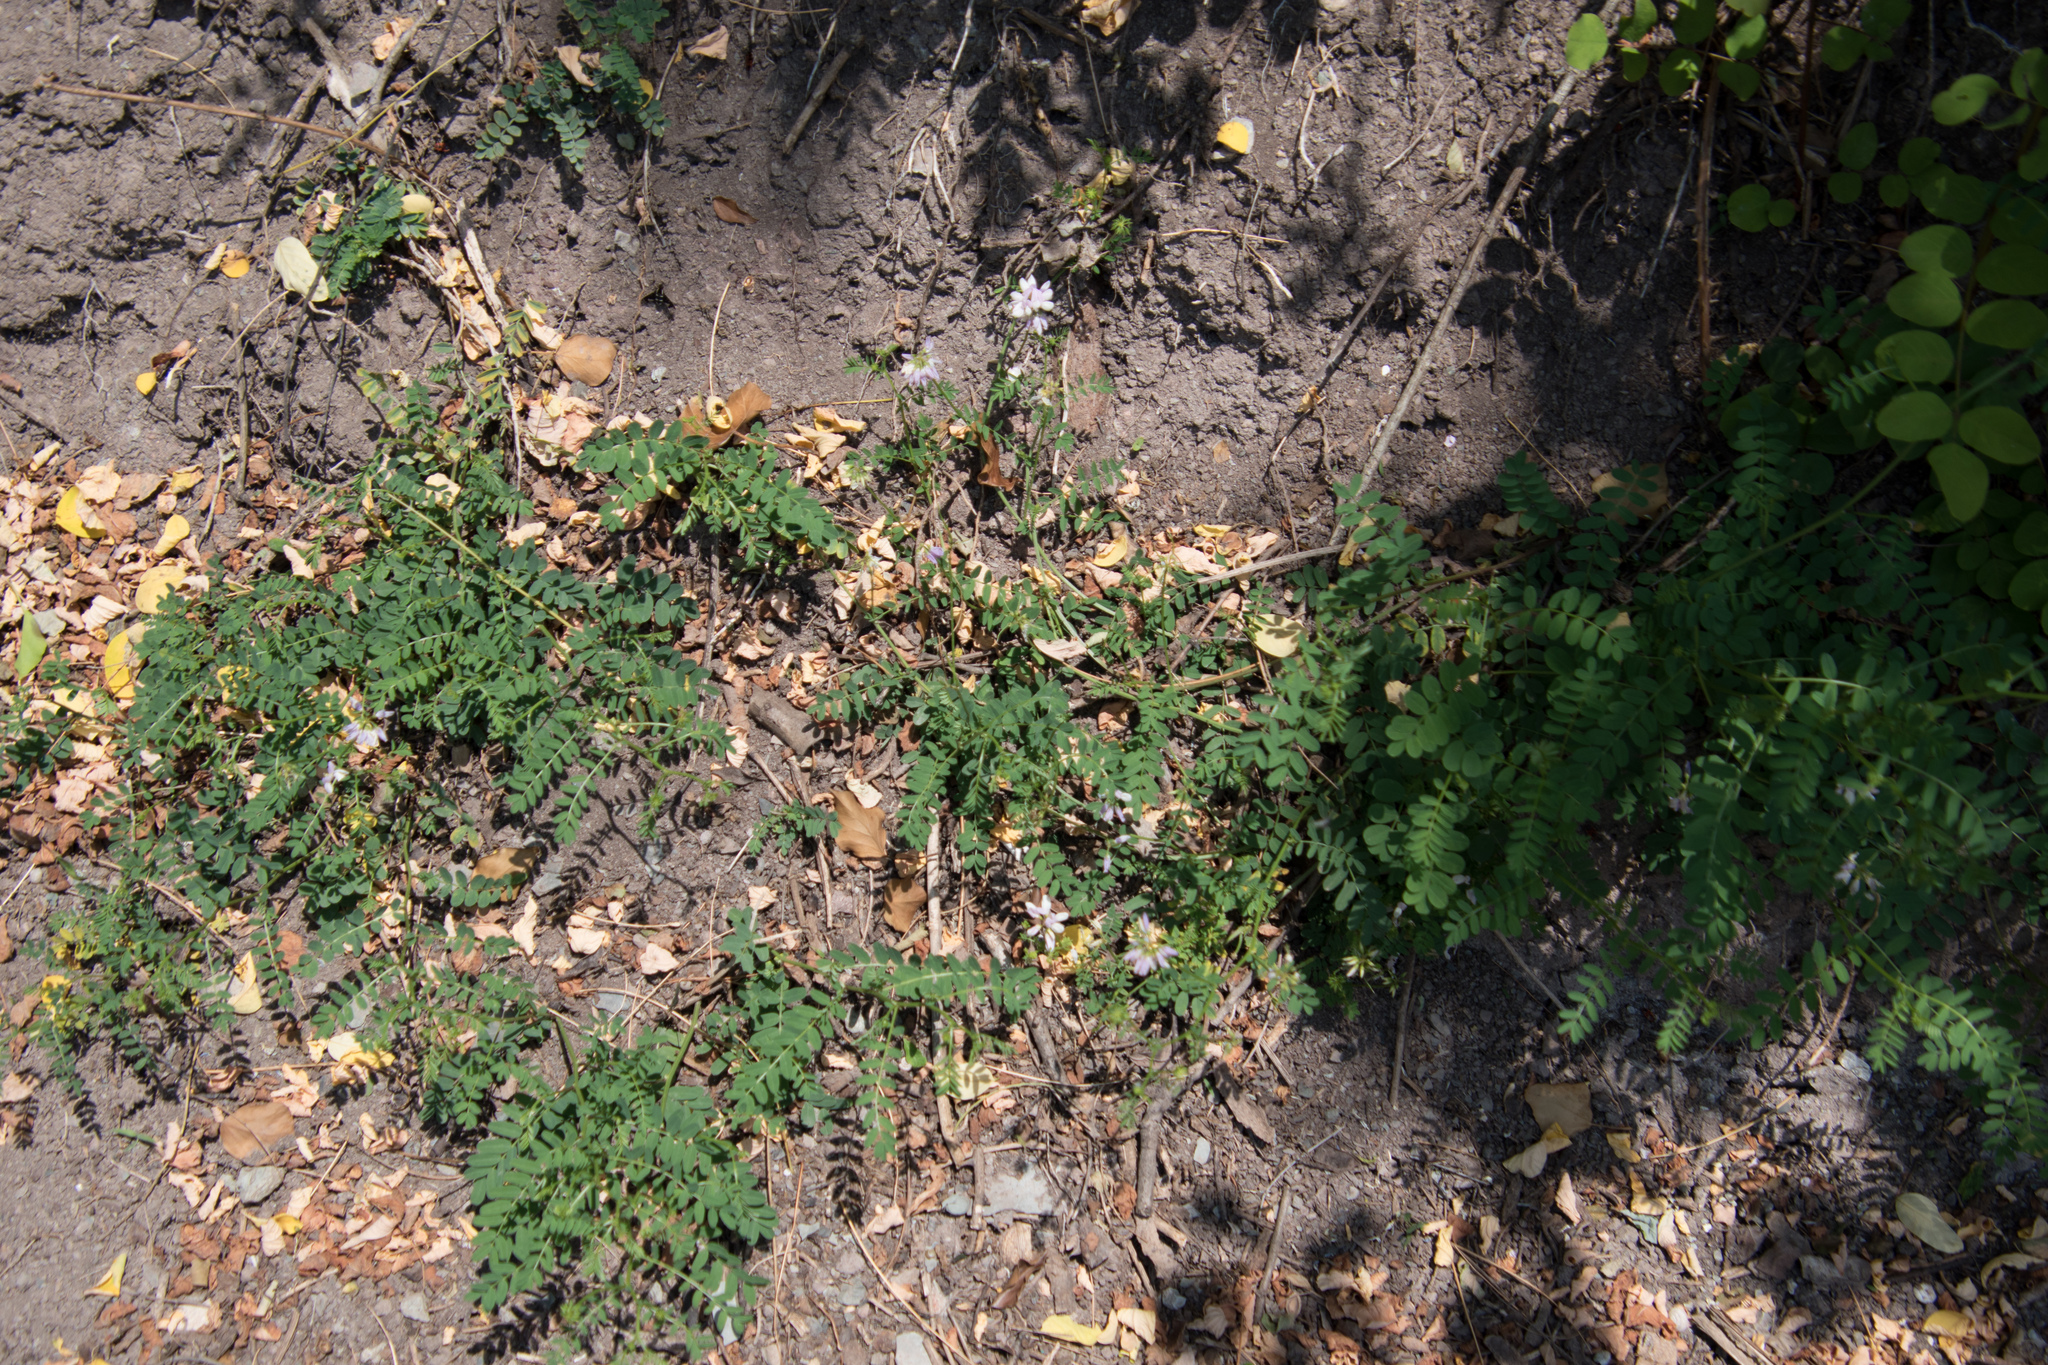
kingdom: Plantae
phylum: Tracheophyta
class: Magnoliopsida
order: Fabales
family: Fabaceae
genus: Coronilla
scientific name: Coronilla varia
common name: Crownvetch
